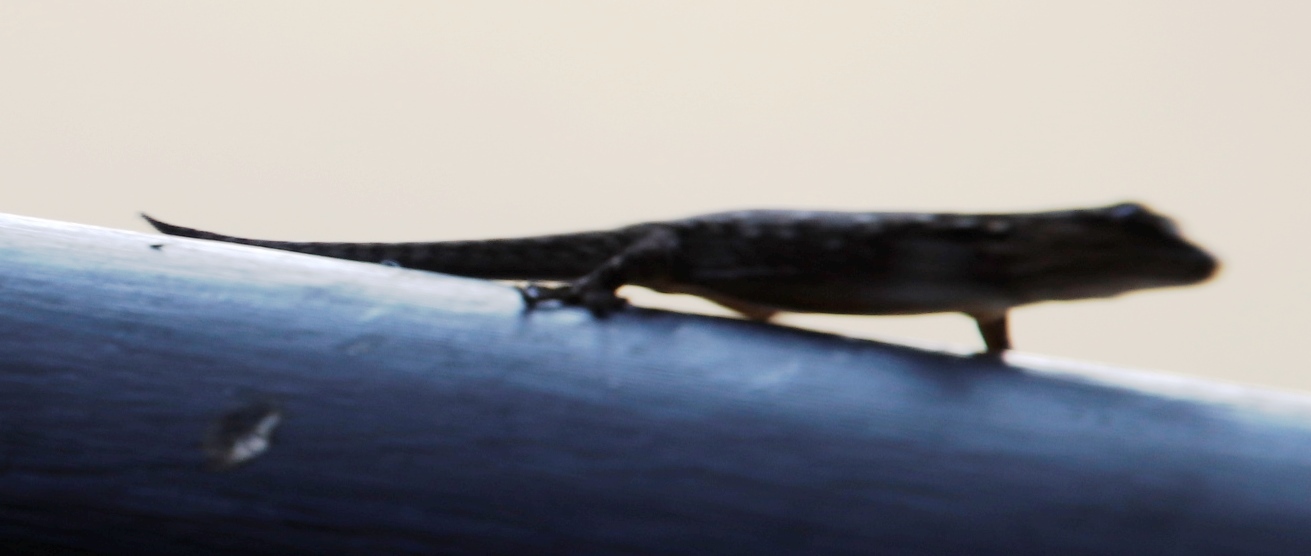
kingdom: Animalia
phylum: Chordata
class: Squamata
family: Gekkonidae
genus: Lygodactylus
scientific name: Lygodactylus chobiensis
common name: Okavango dwarf gecko
